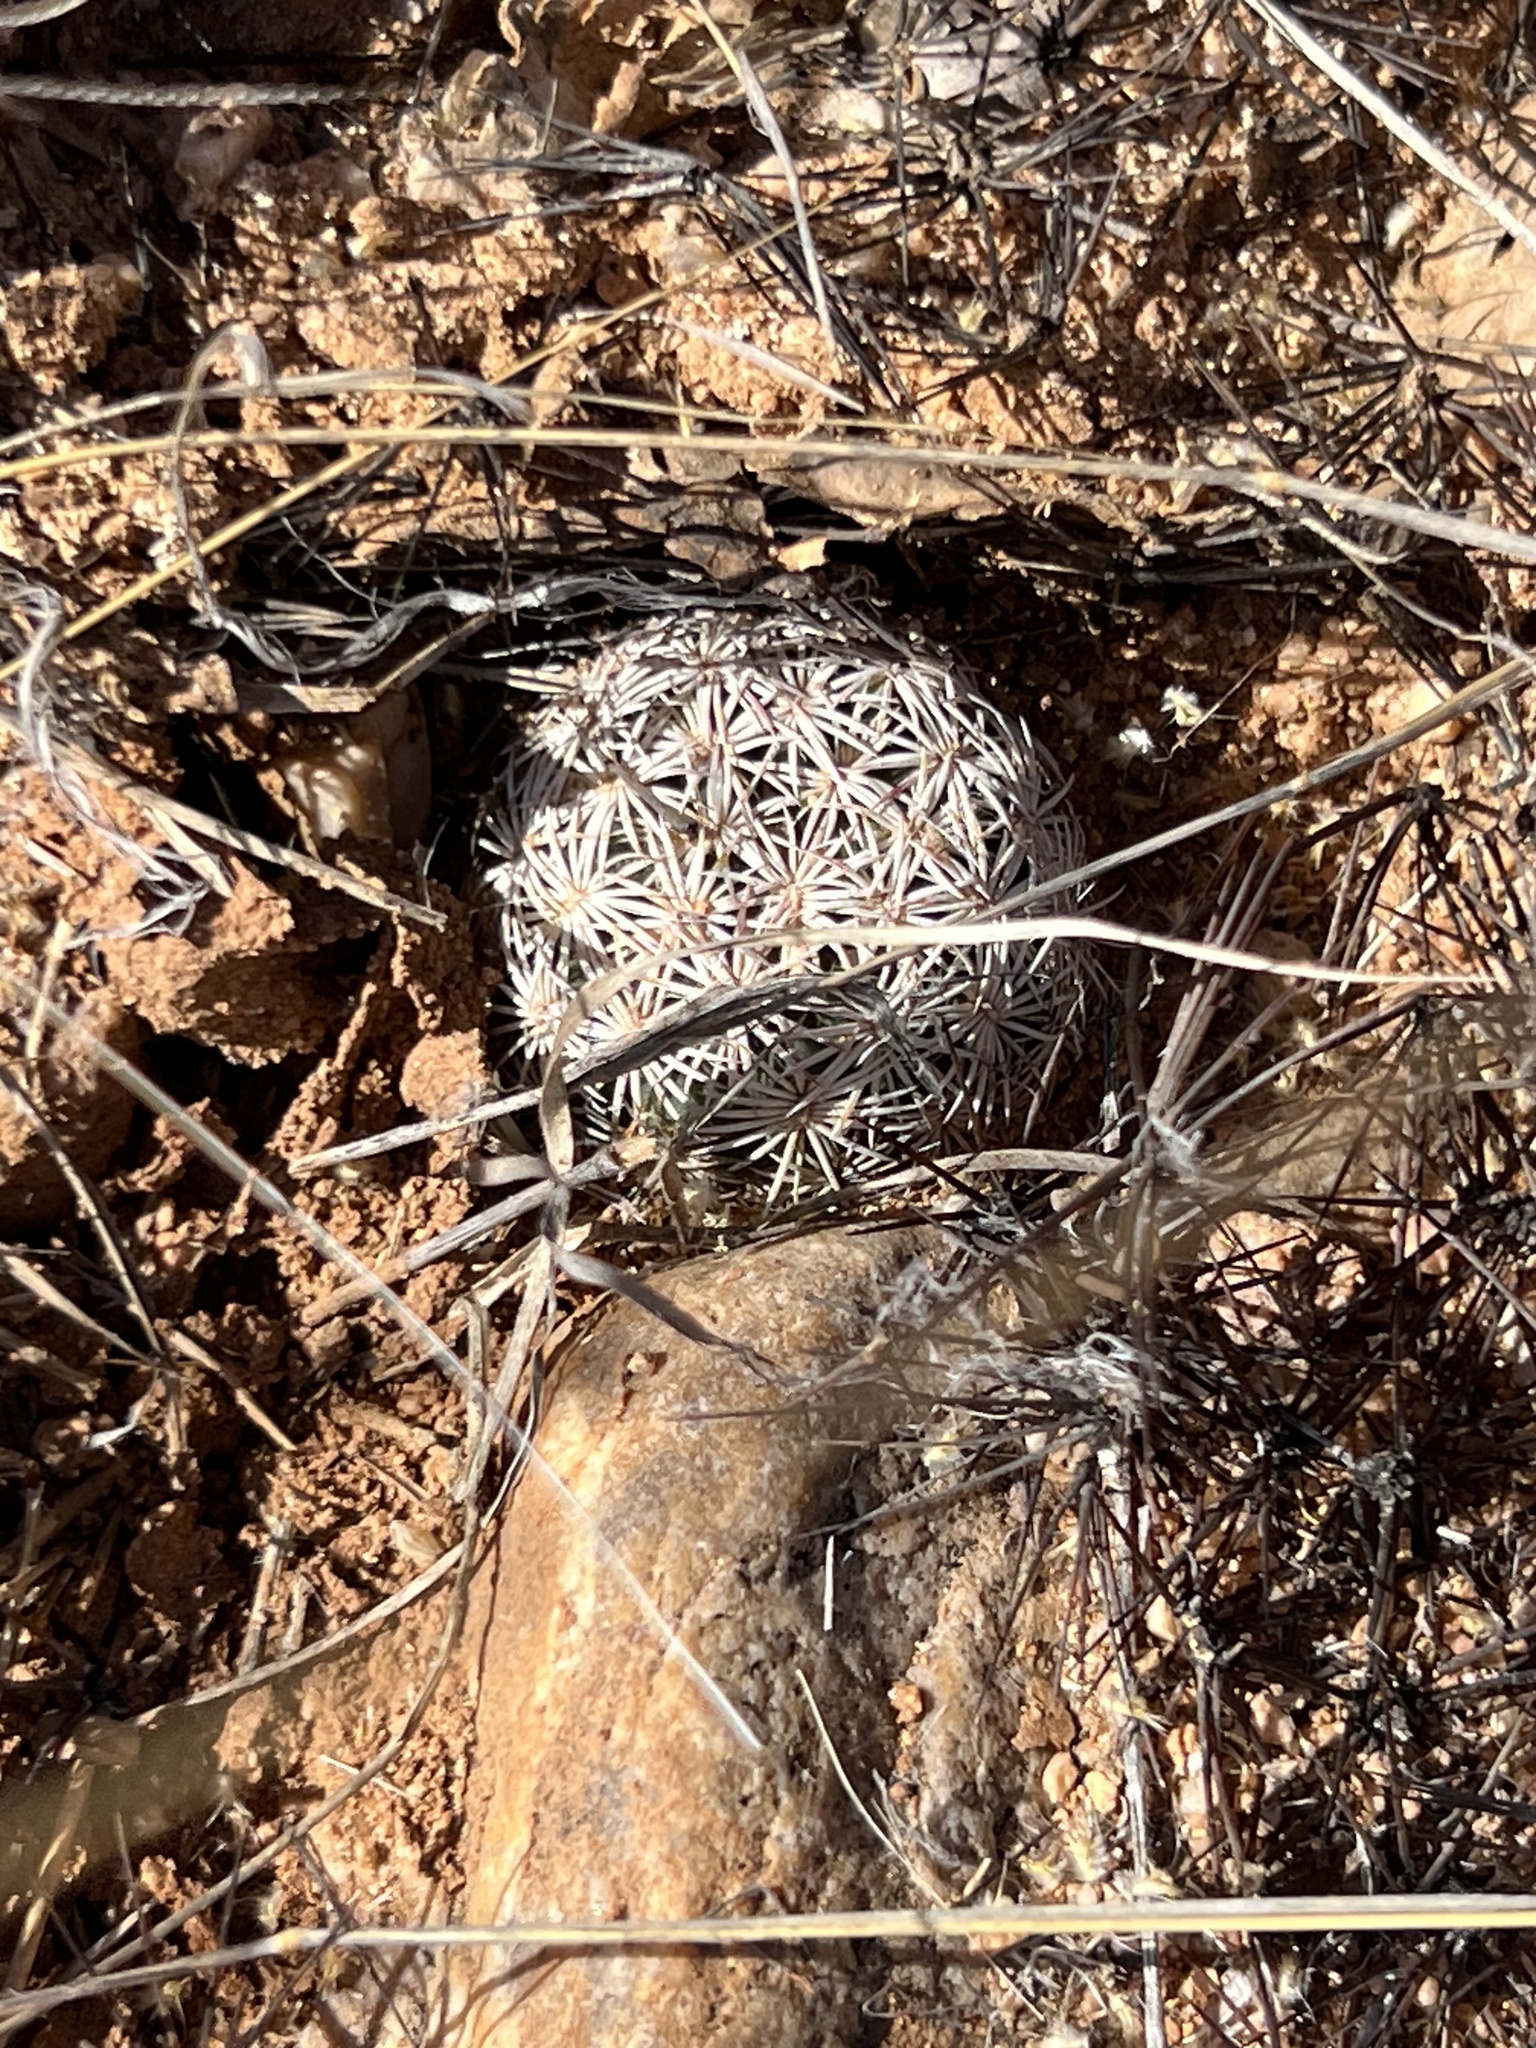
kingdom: Plantae
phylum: Tracheophyta
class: Magnoliopsida
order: Caryophyllales
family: Cactaceae
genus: Sclerocactus
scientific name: Sclerocactus johnsonii
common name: Eight-spine fishhook cactus
